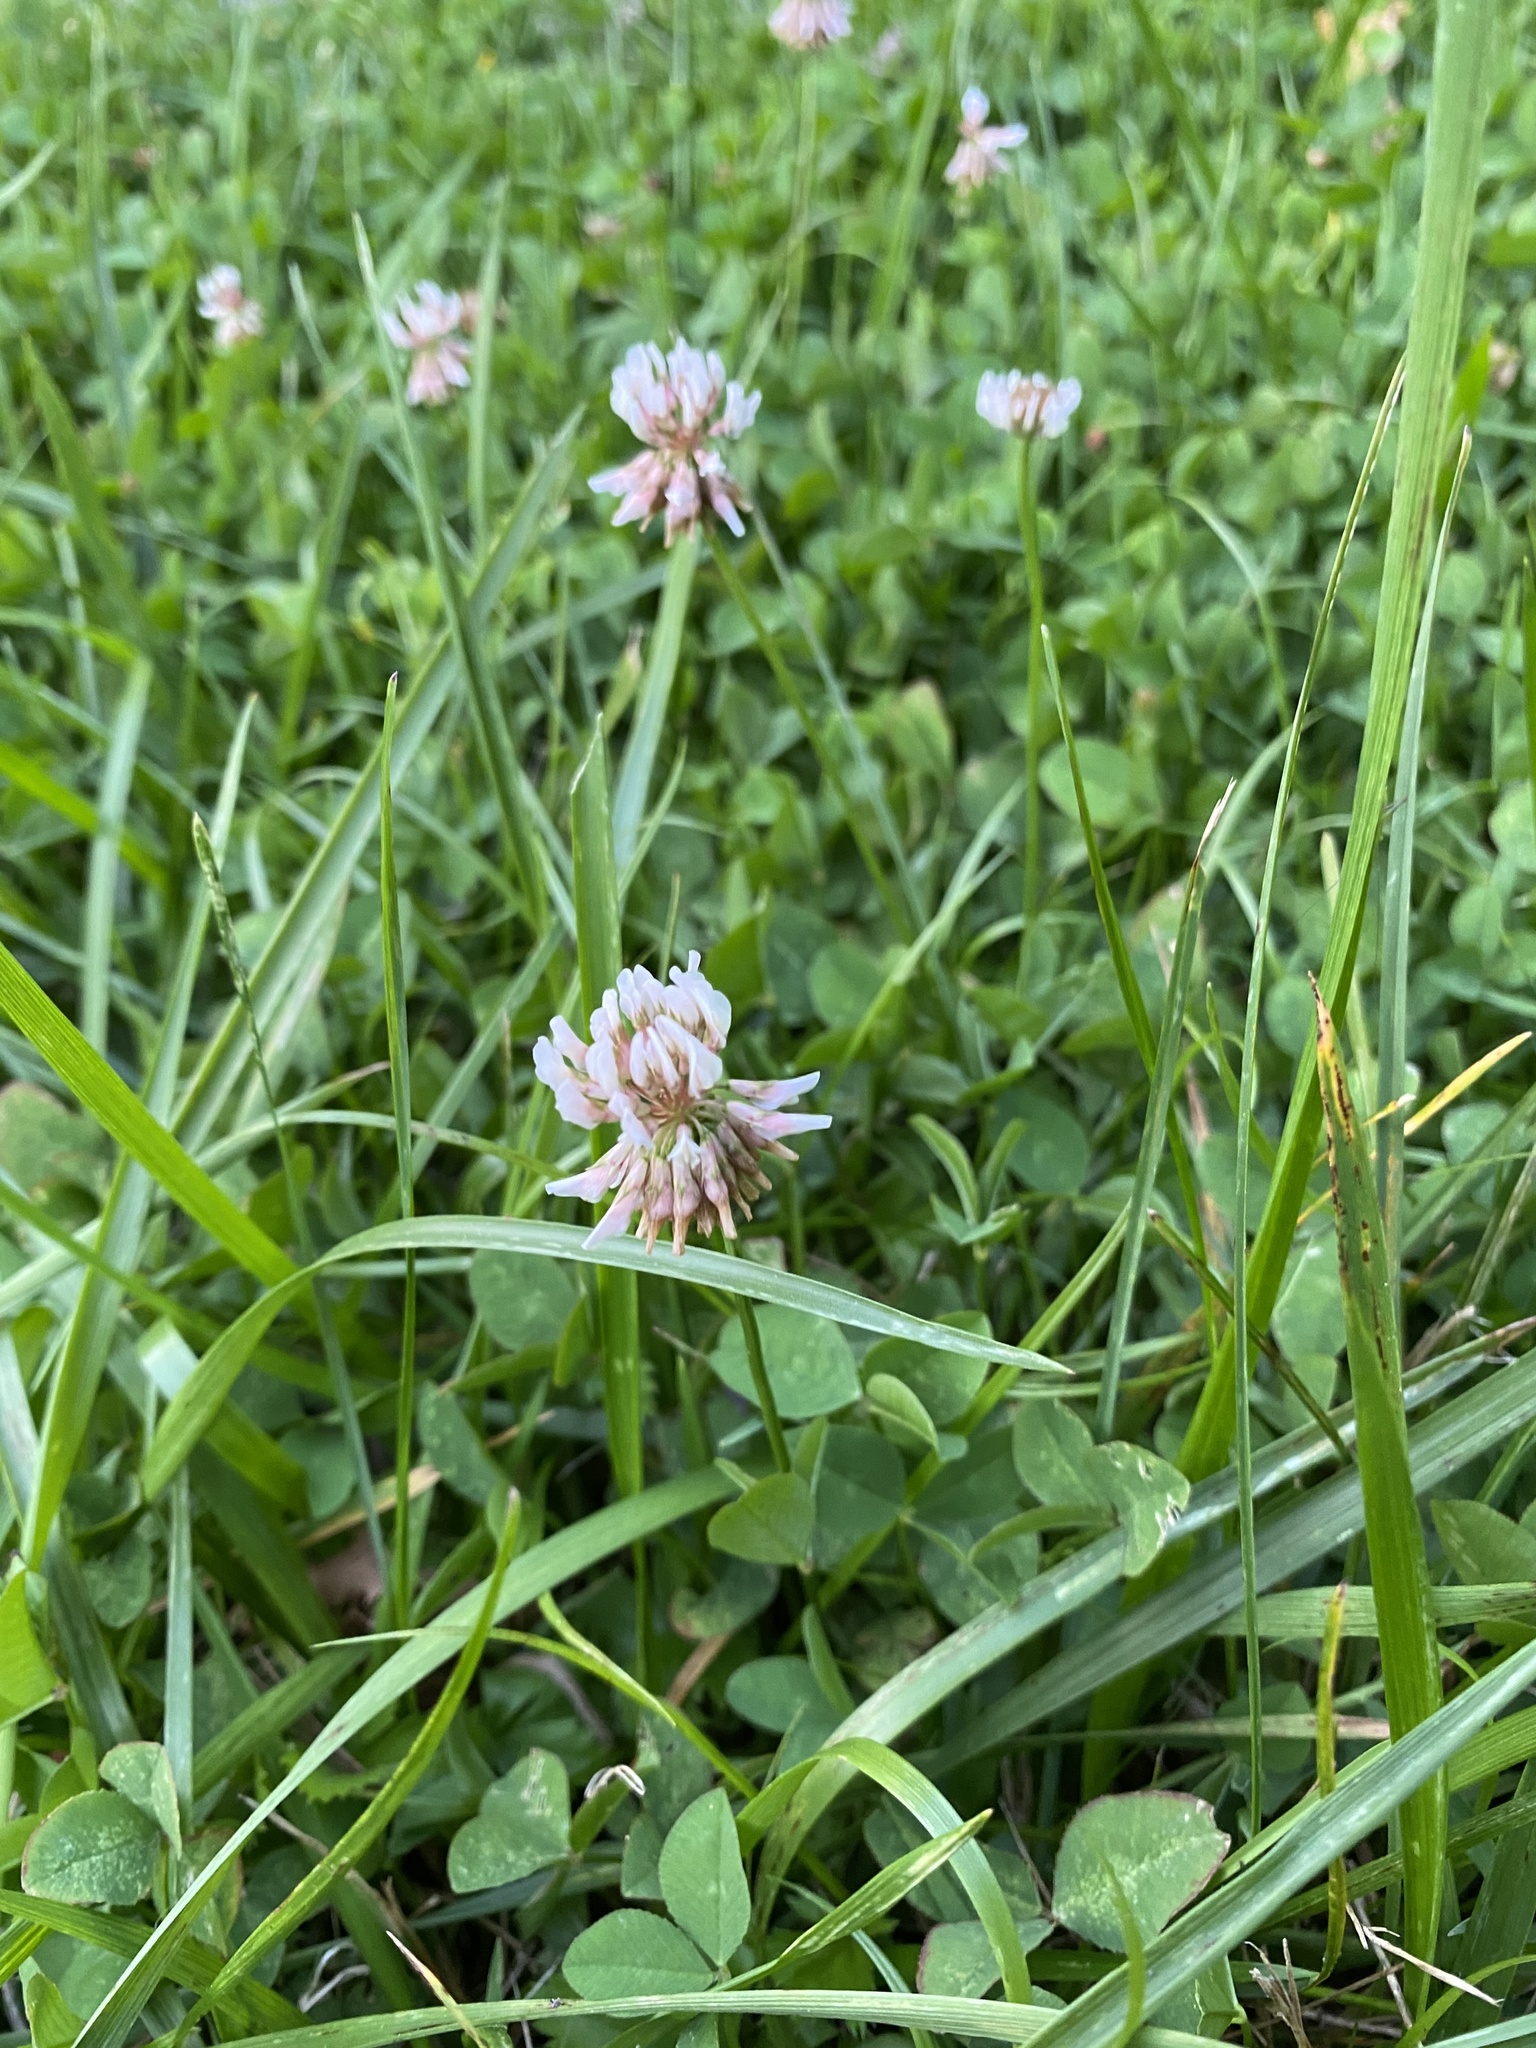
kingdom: Plantae
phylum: Tracheophyta
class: Magnoliopsida
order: Fabales
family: Fabaceae
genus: Trifolium
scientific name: Trifolium repens
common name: White clover
